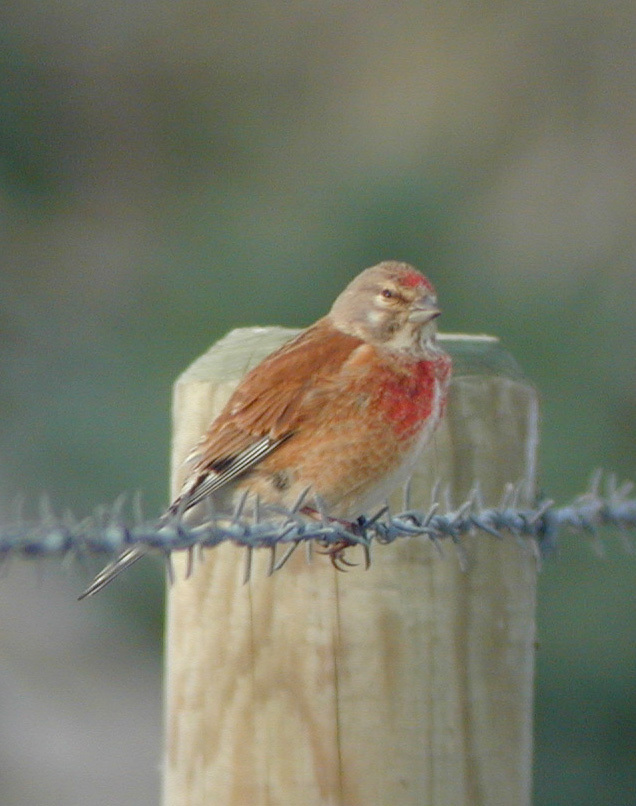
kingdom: Animalia
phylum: Chordata
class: Aves
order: Passeriformes
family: Fringillidae
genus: Linaria
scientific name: Linaria cannabina
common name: Common linnet
